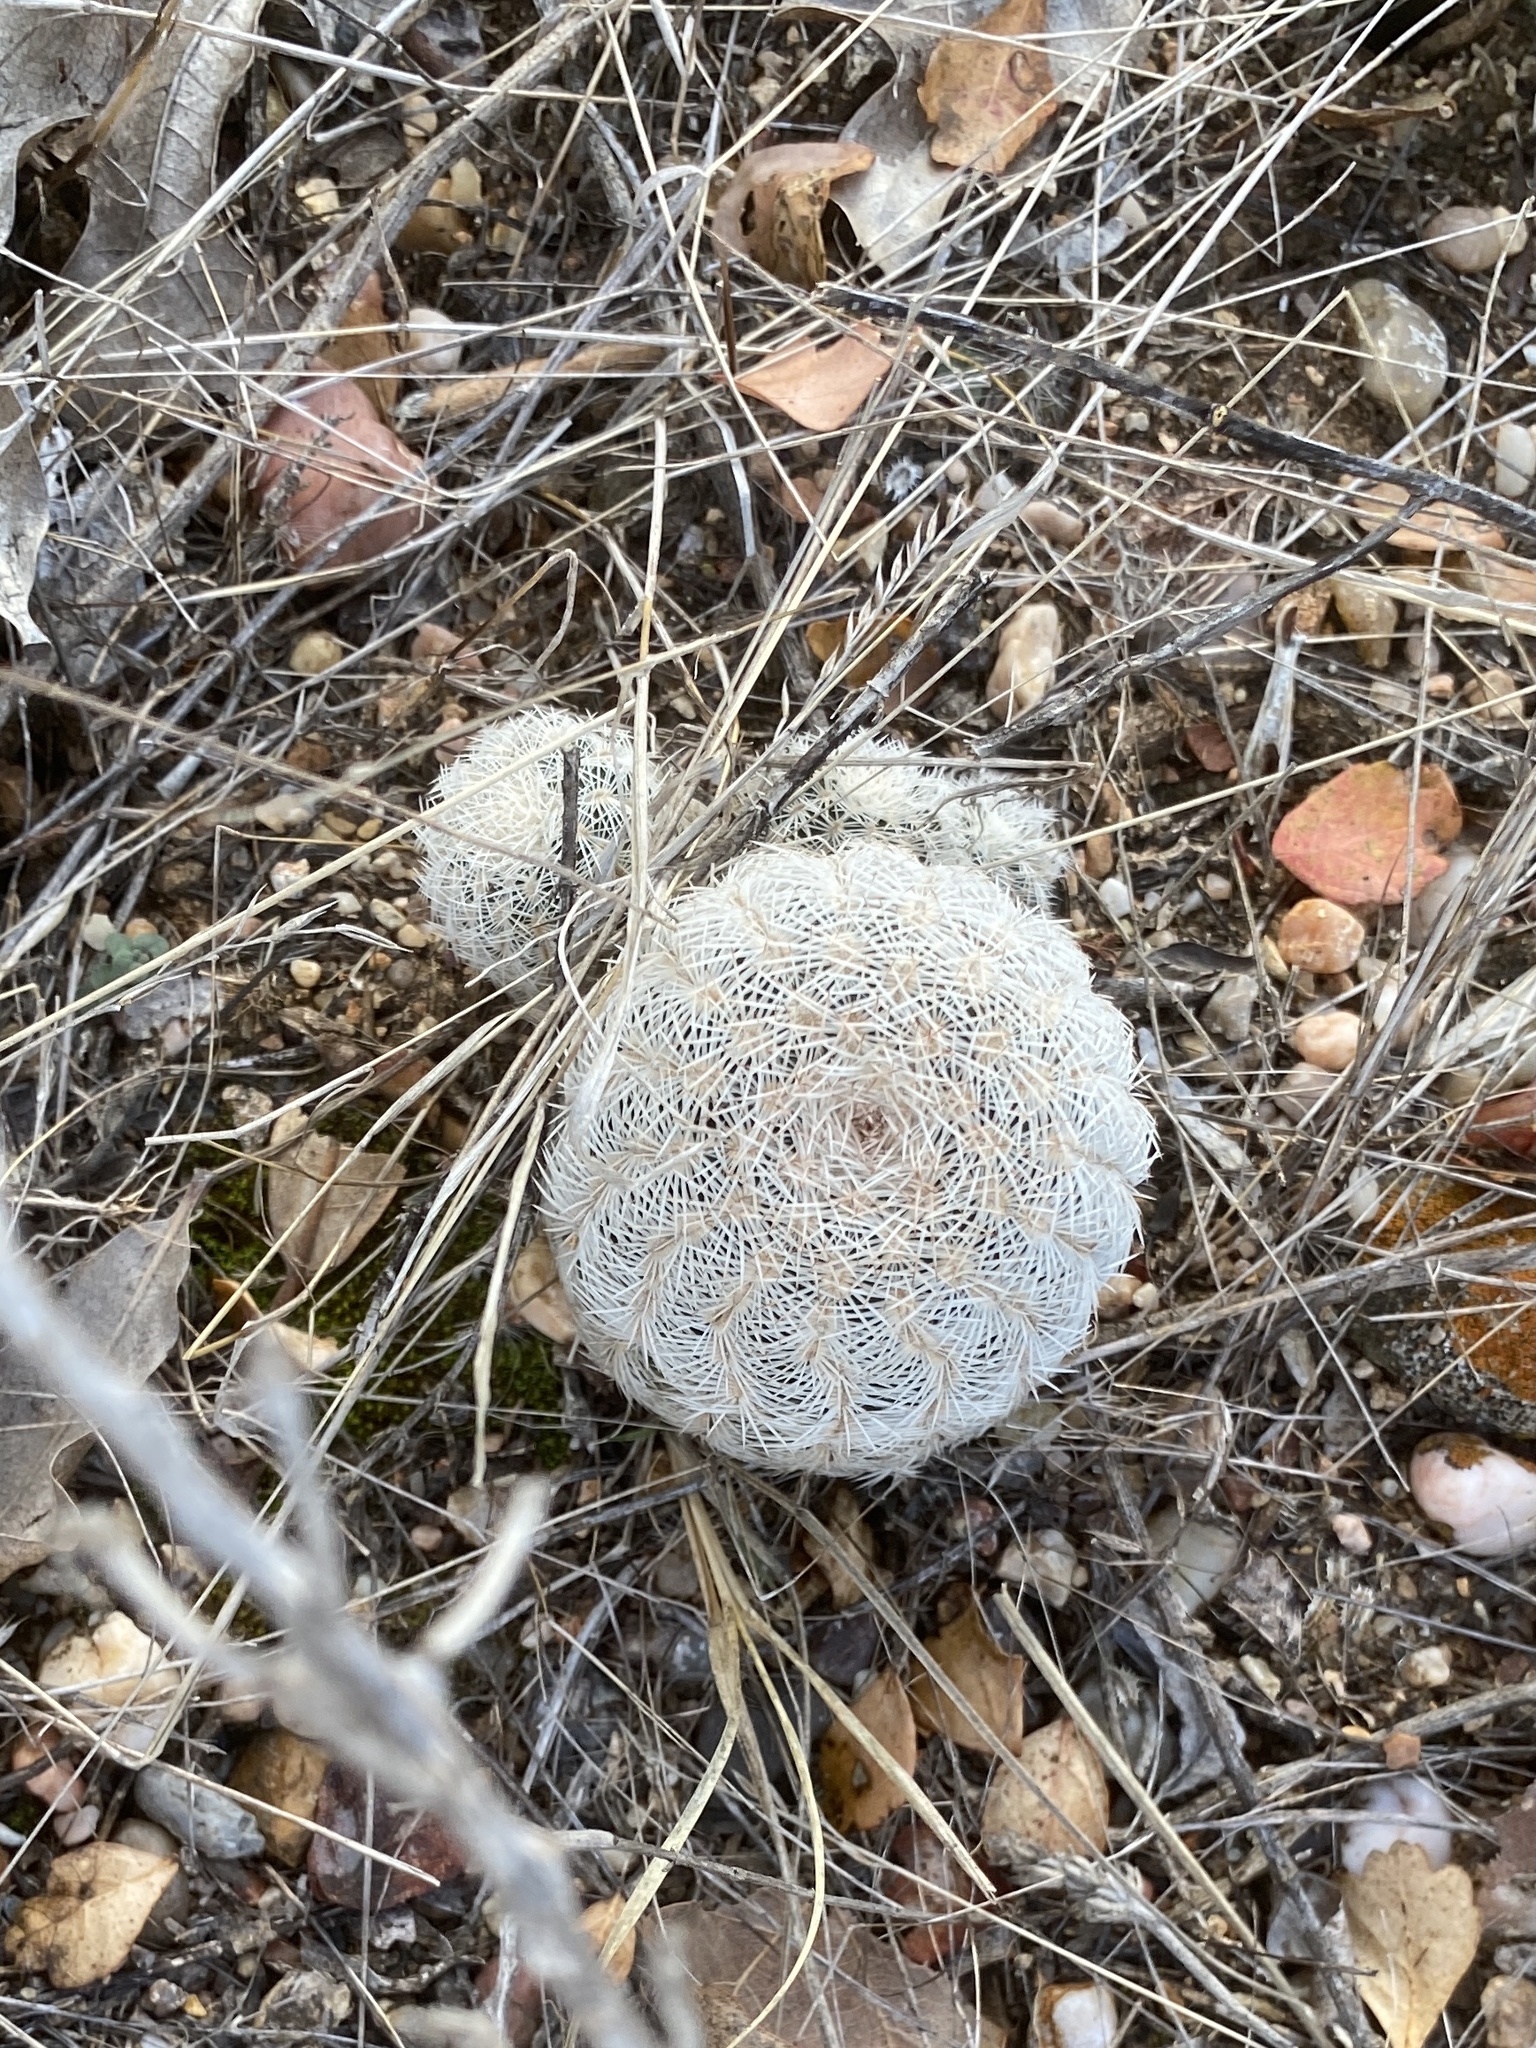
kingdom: Plantae
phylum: Tracheophyta
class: Magnoliopsida
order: Caryophyllales
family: Cactaceae
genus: Echinocereus
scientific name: Echinocereus reichenbachii
